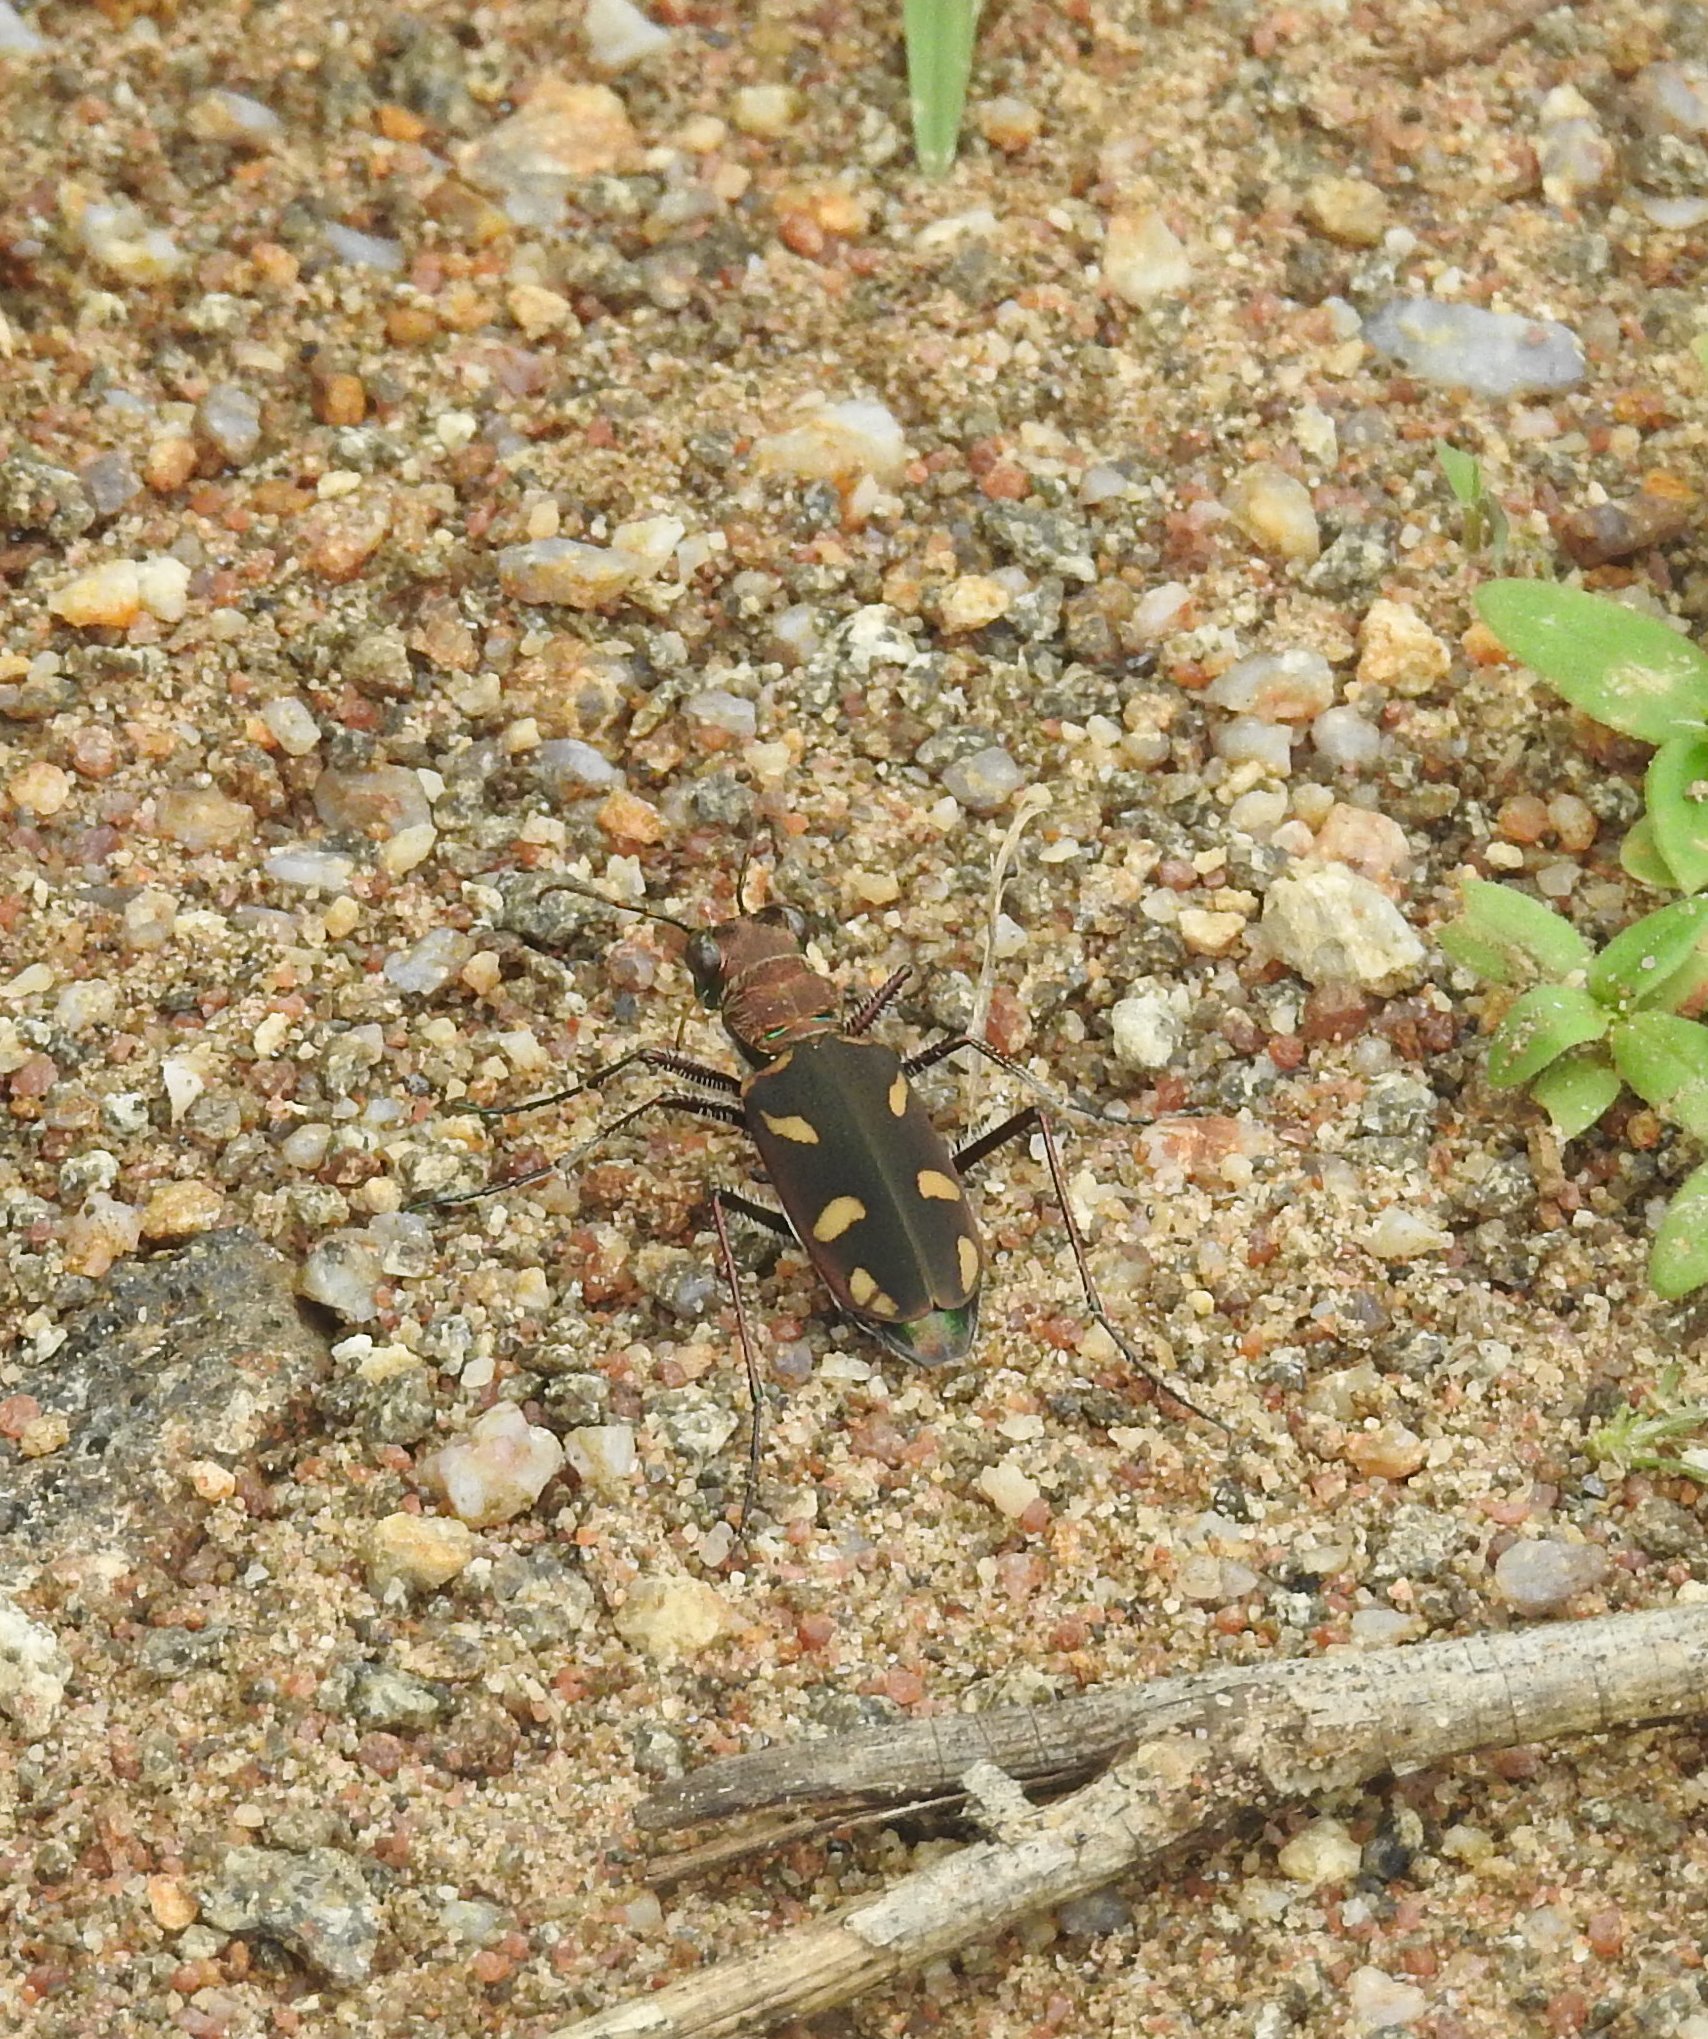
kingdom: Animalia
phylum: Arthropoda
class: Insecta
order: Coleoptera
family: Carabidae
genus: Cicindela
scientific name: Cicindela calligramma
